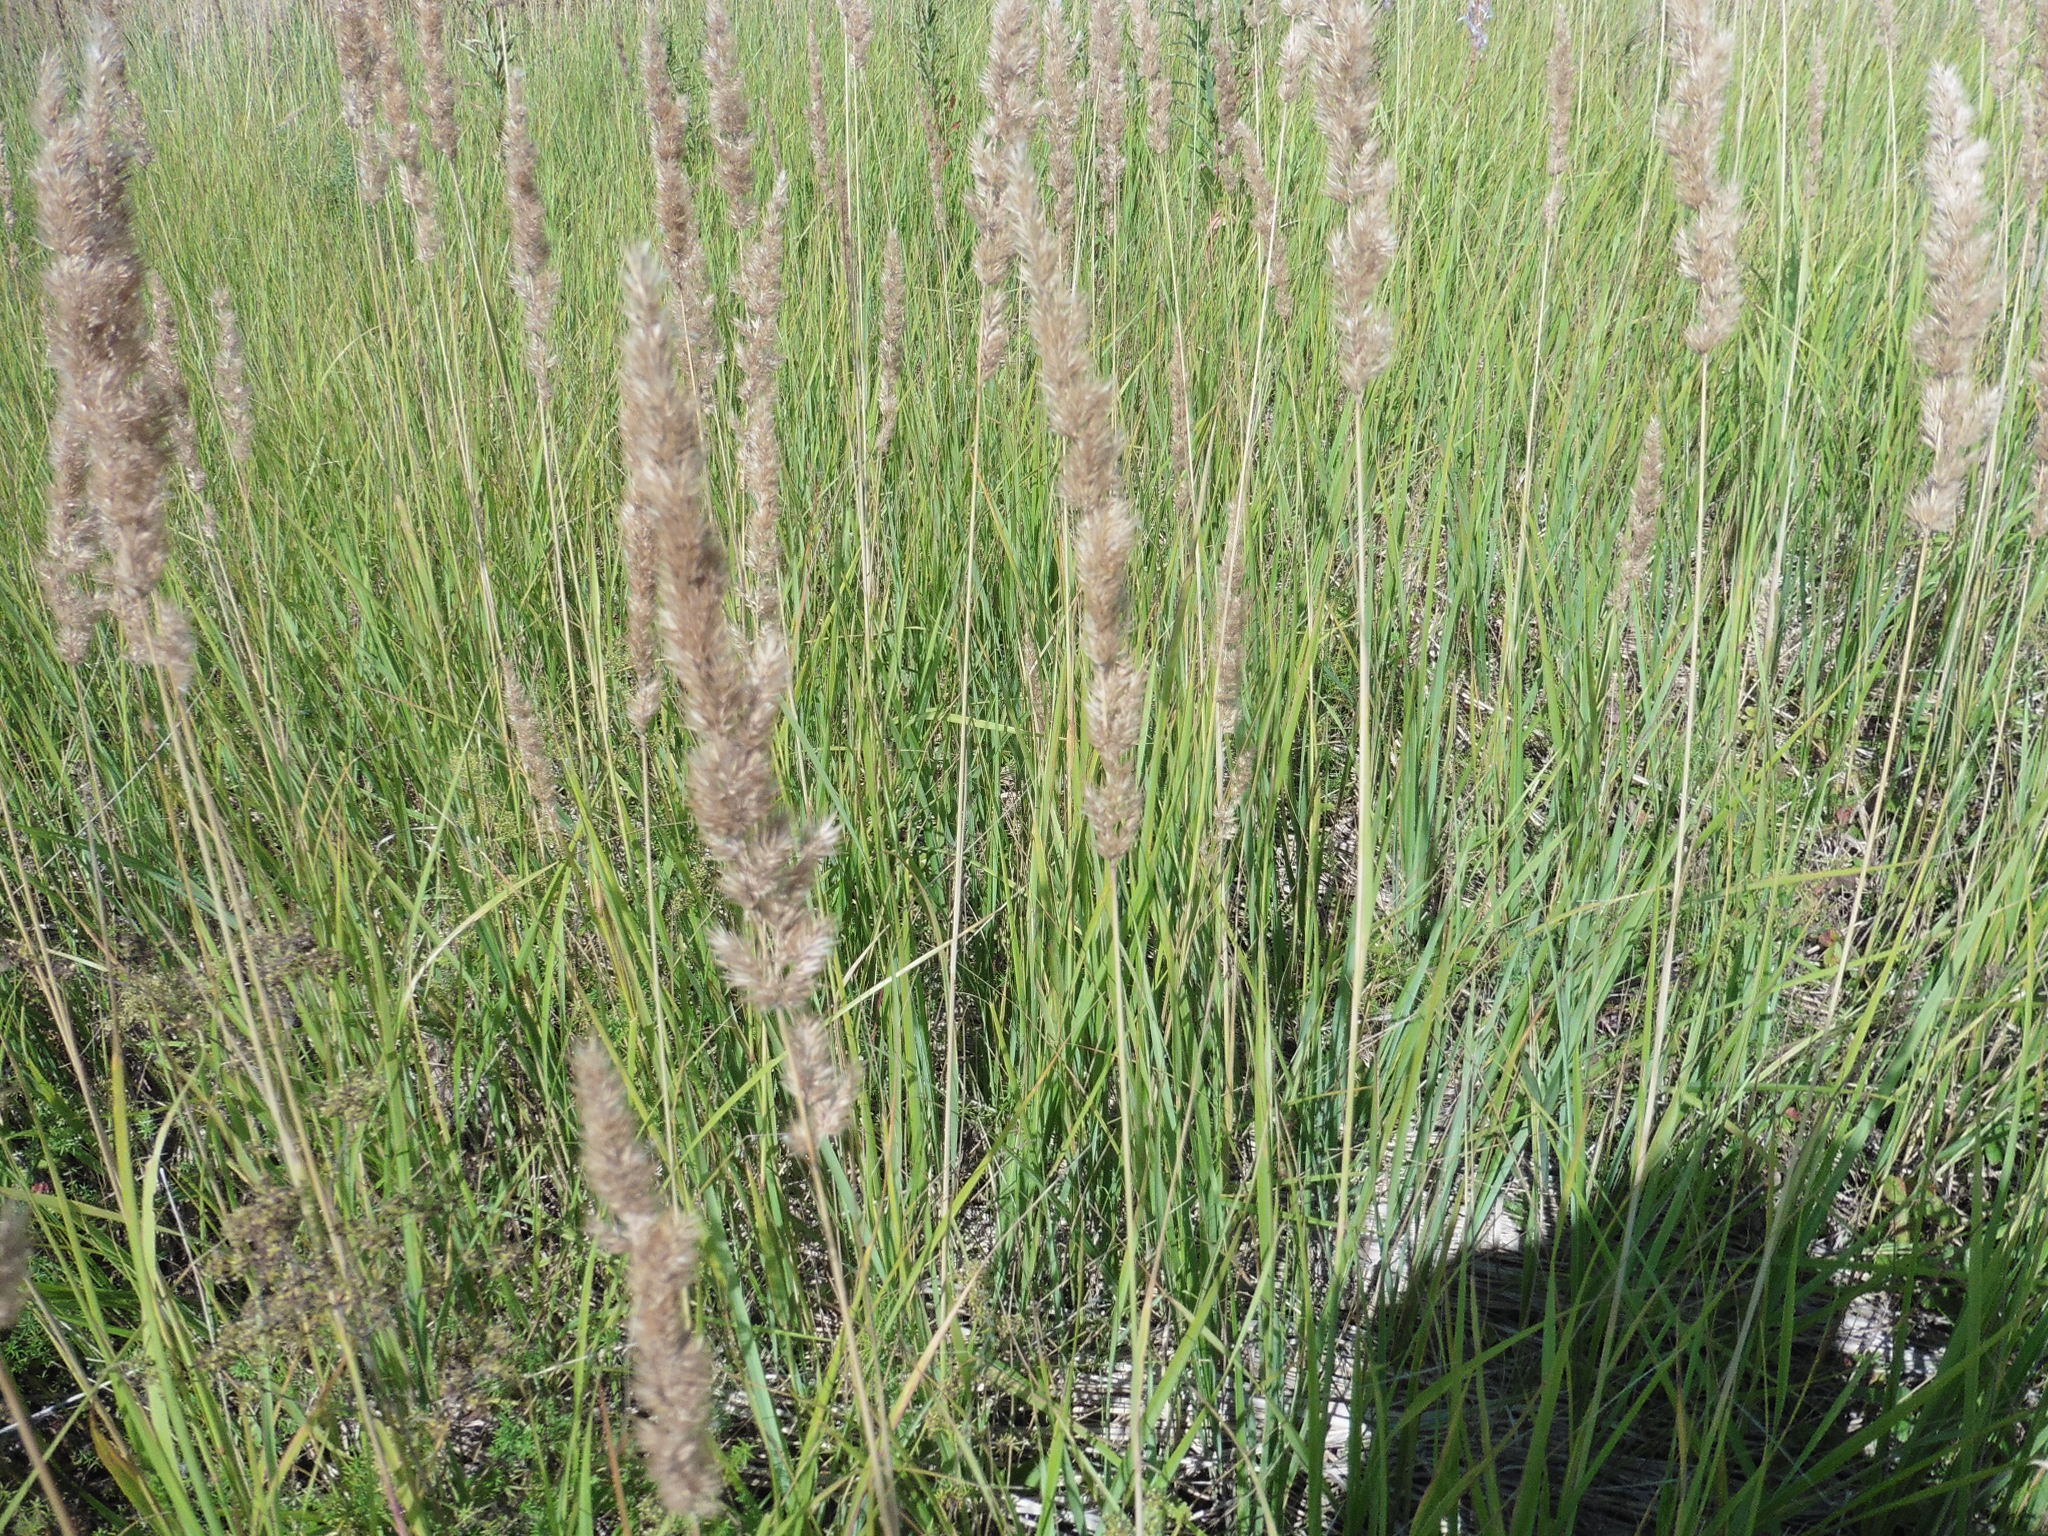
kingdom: Plantae
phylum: Tracheophyta
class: Liliopsida
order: Poales
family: Poaceae
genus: Calamagrostis
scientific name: Calamagrostis epigejos
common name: Wood small-reed
